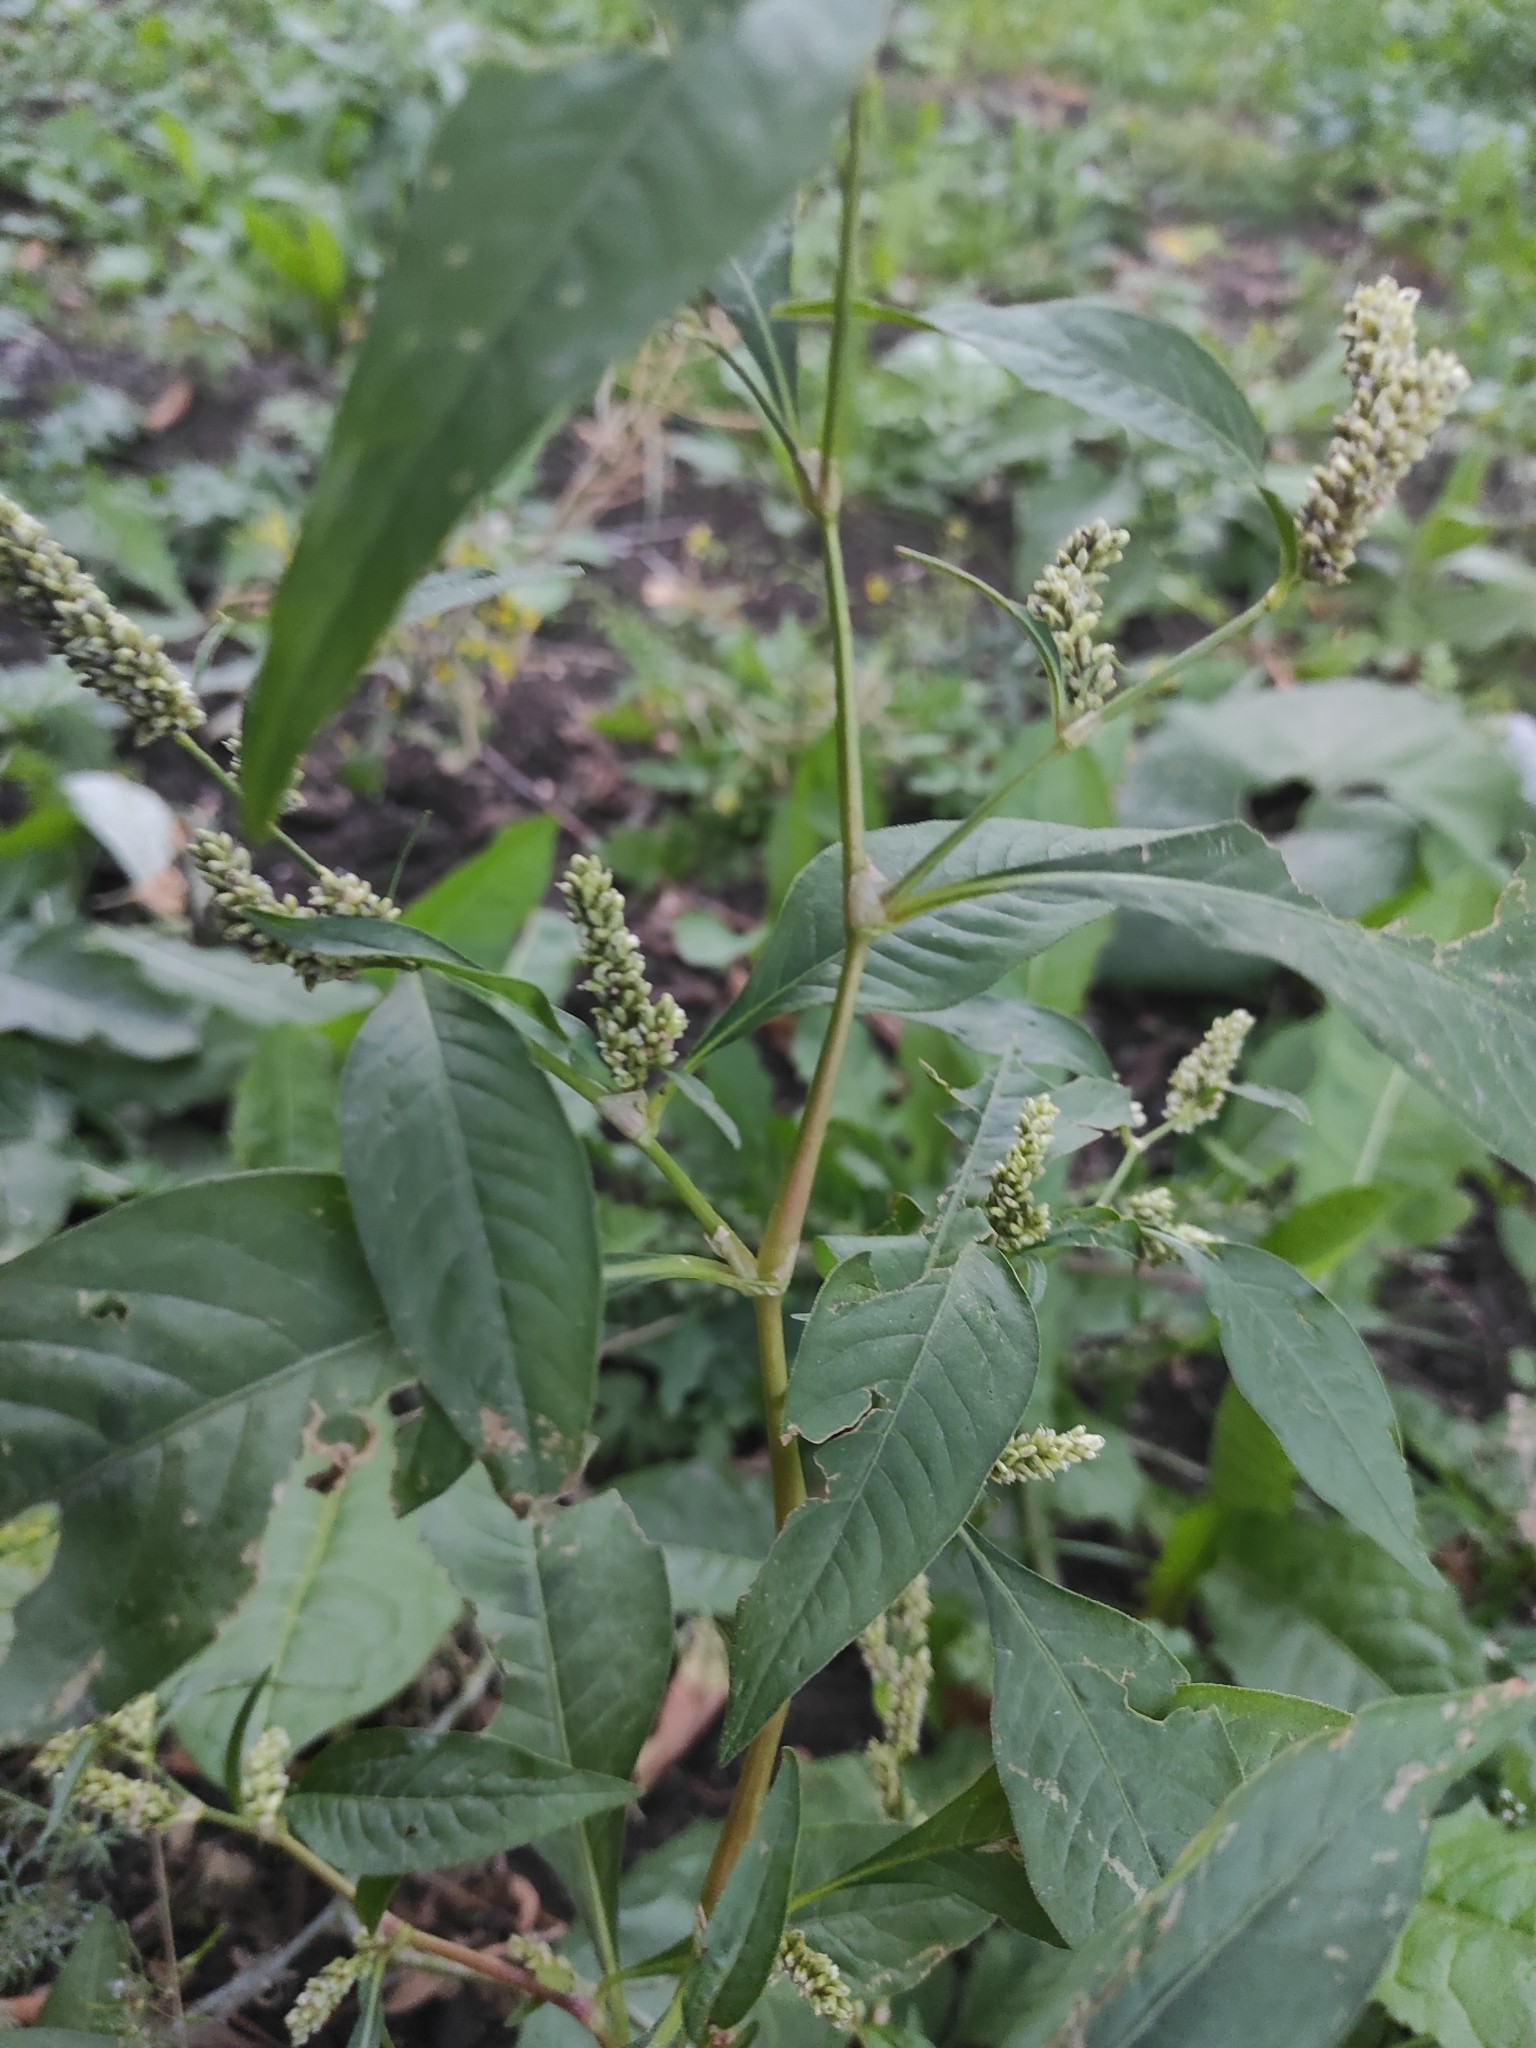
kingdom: Plantae
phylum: Tracheophyta
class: Magnoliopsida
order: Caryophyllales
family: Polygonaceae
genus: Persicaria
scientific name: Persicaria lapathifolia
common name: Curlytop knotweed
